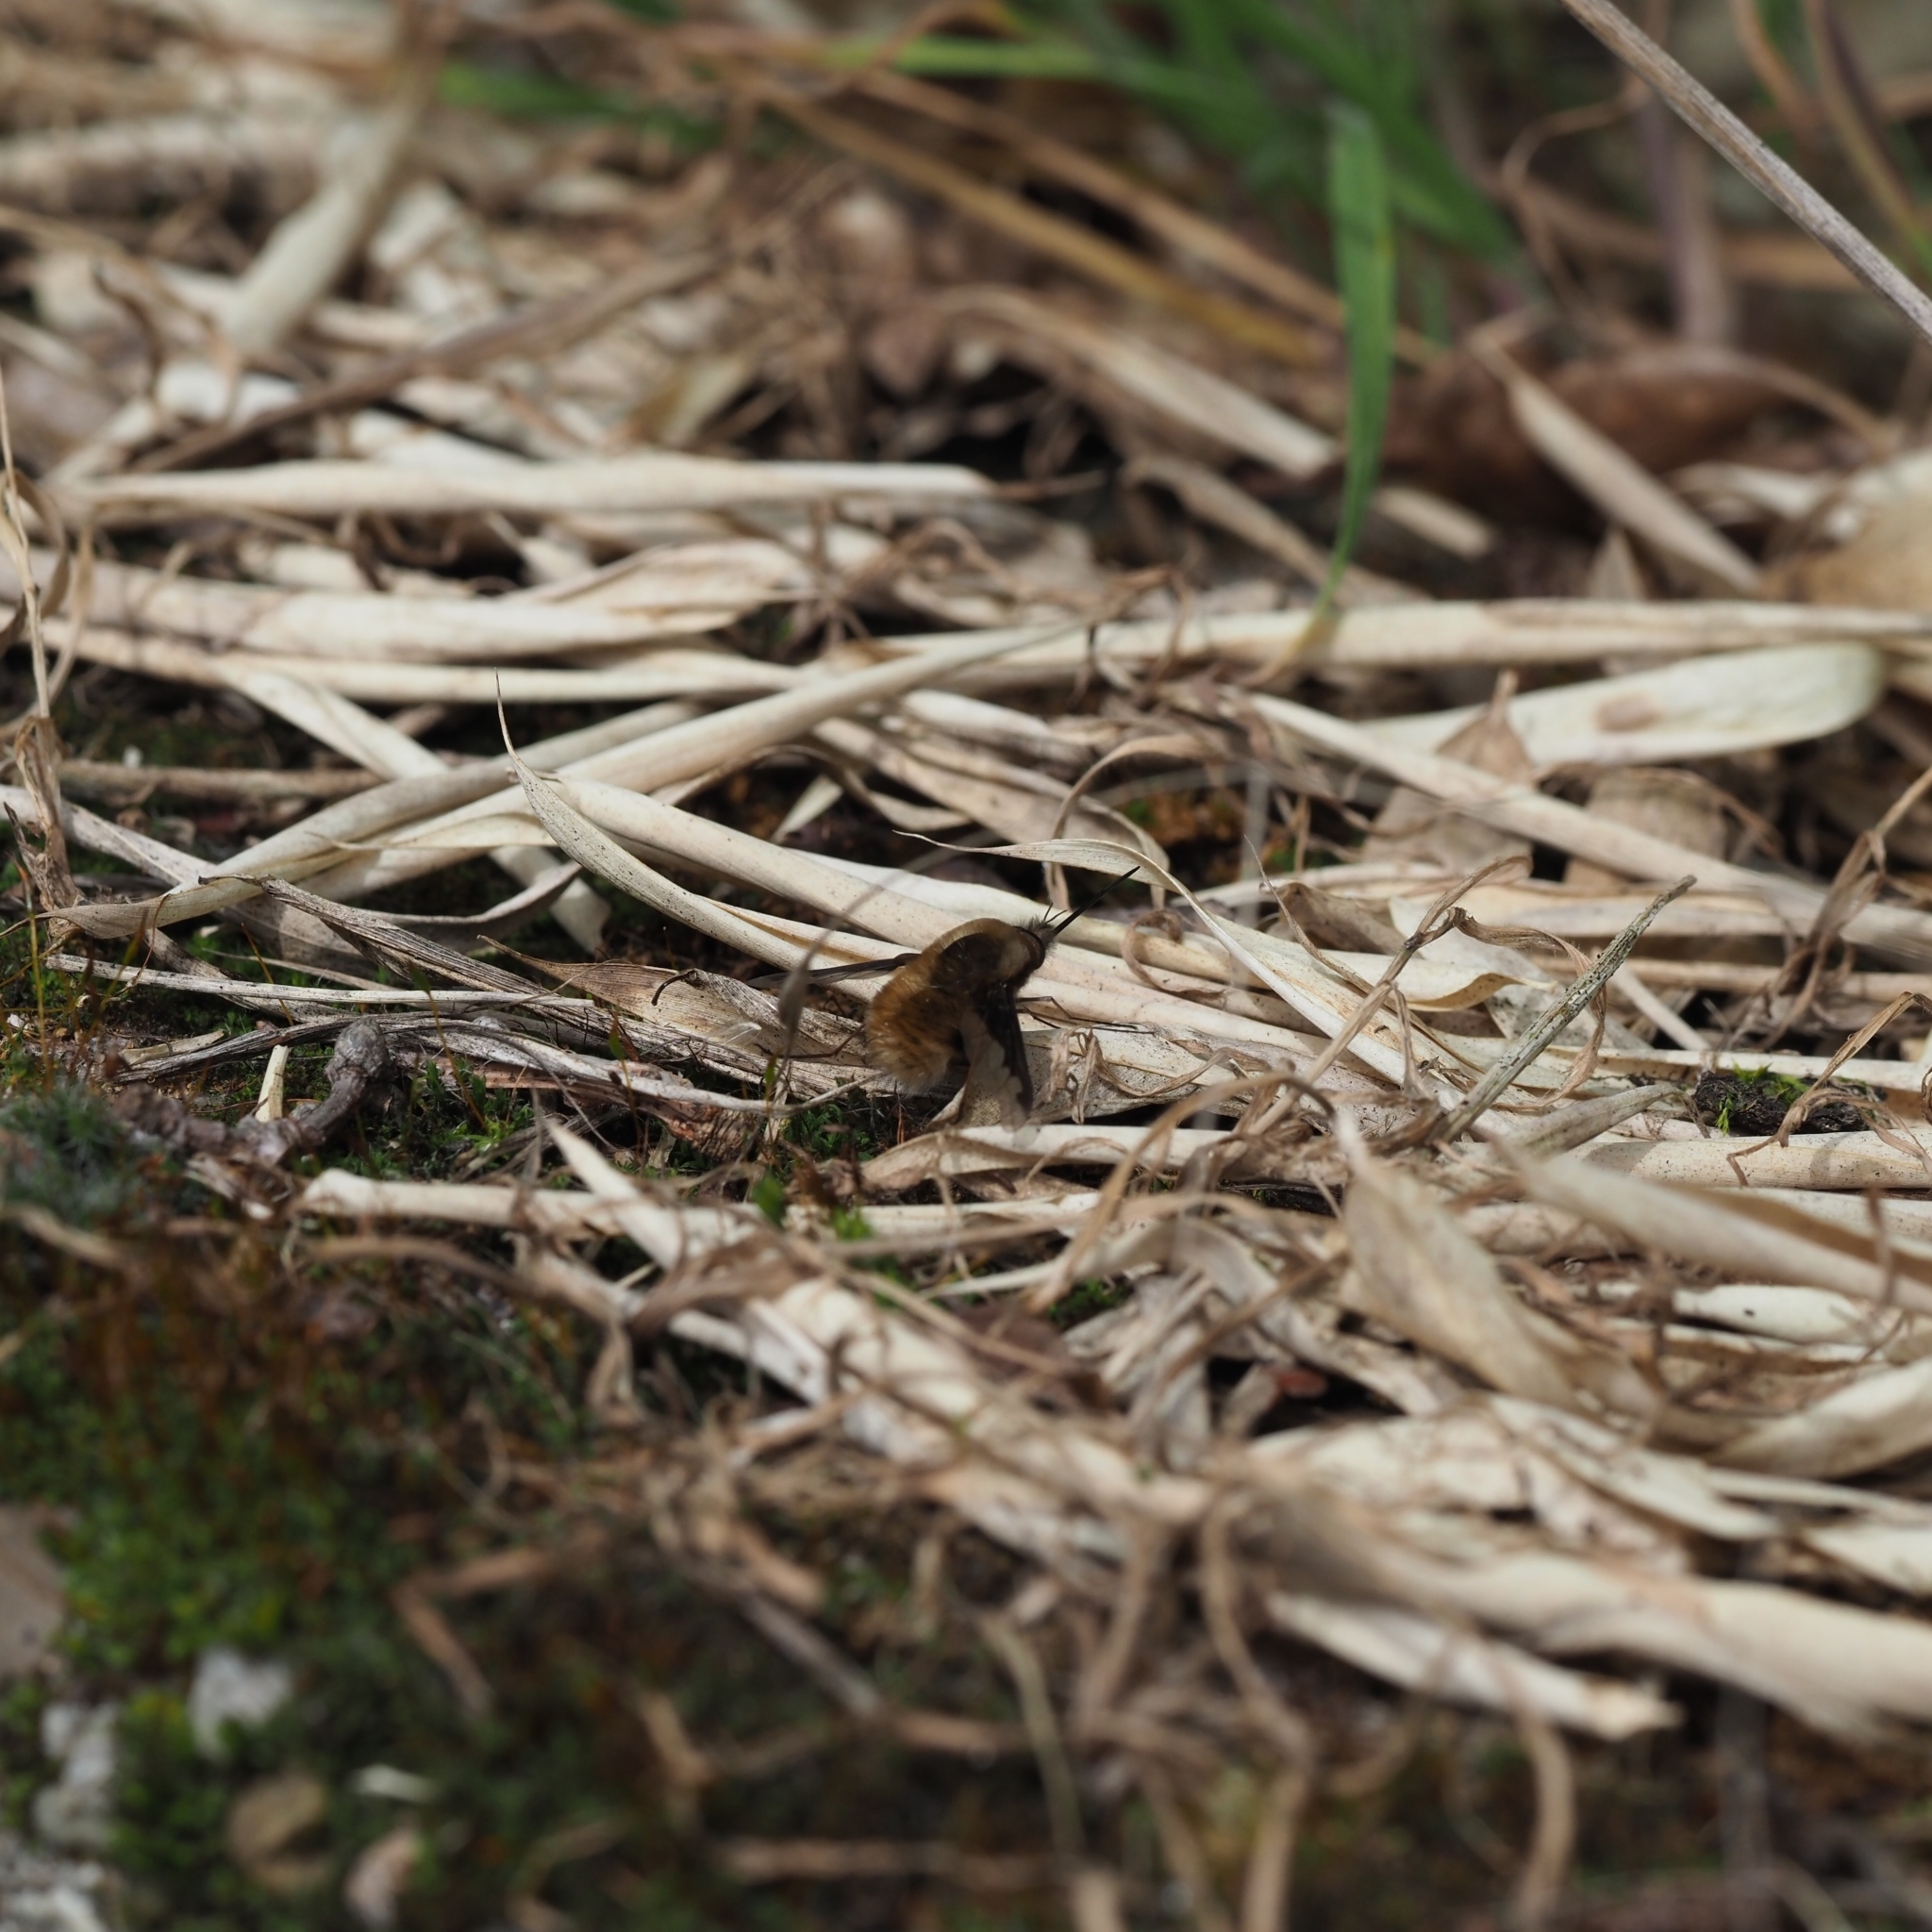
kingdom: Animalia
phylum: Arthropoda
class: Insecta
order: Diptera
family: Bombyliidae
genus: Bombylius
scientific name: Bombylius major
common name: Bee fly
